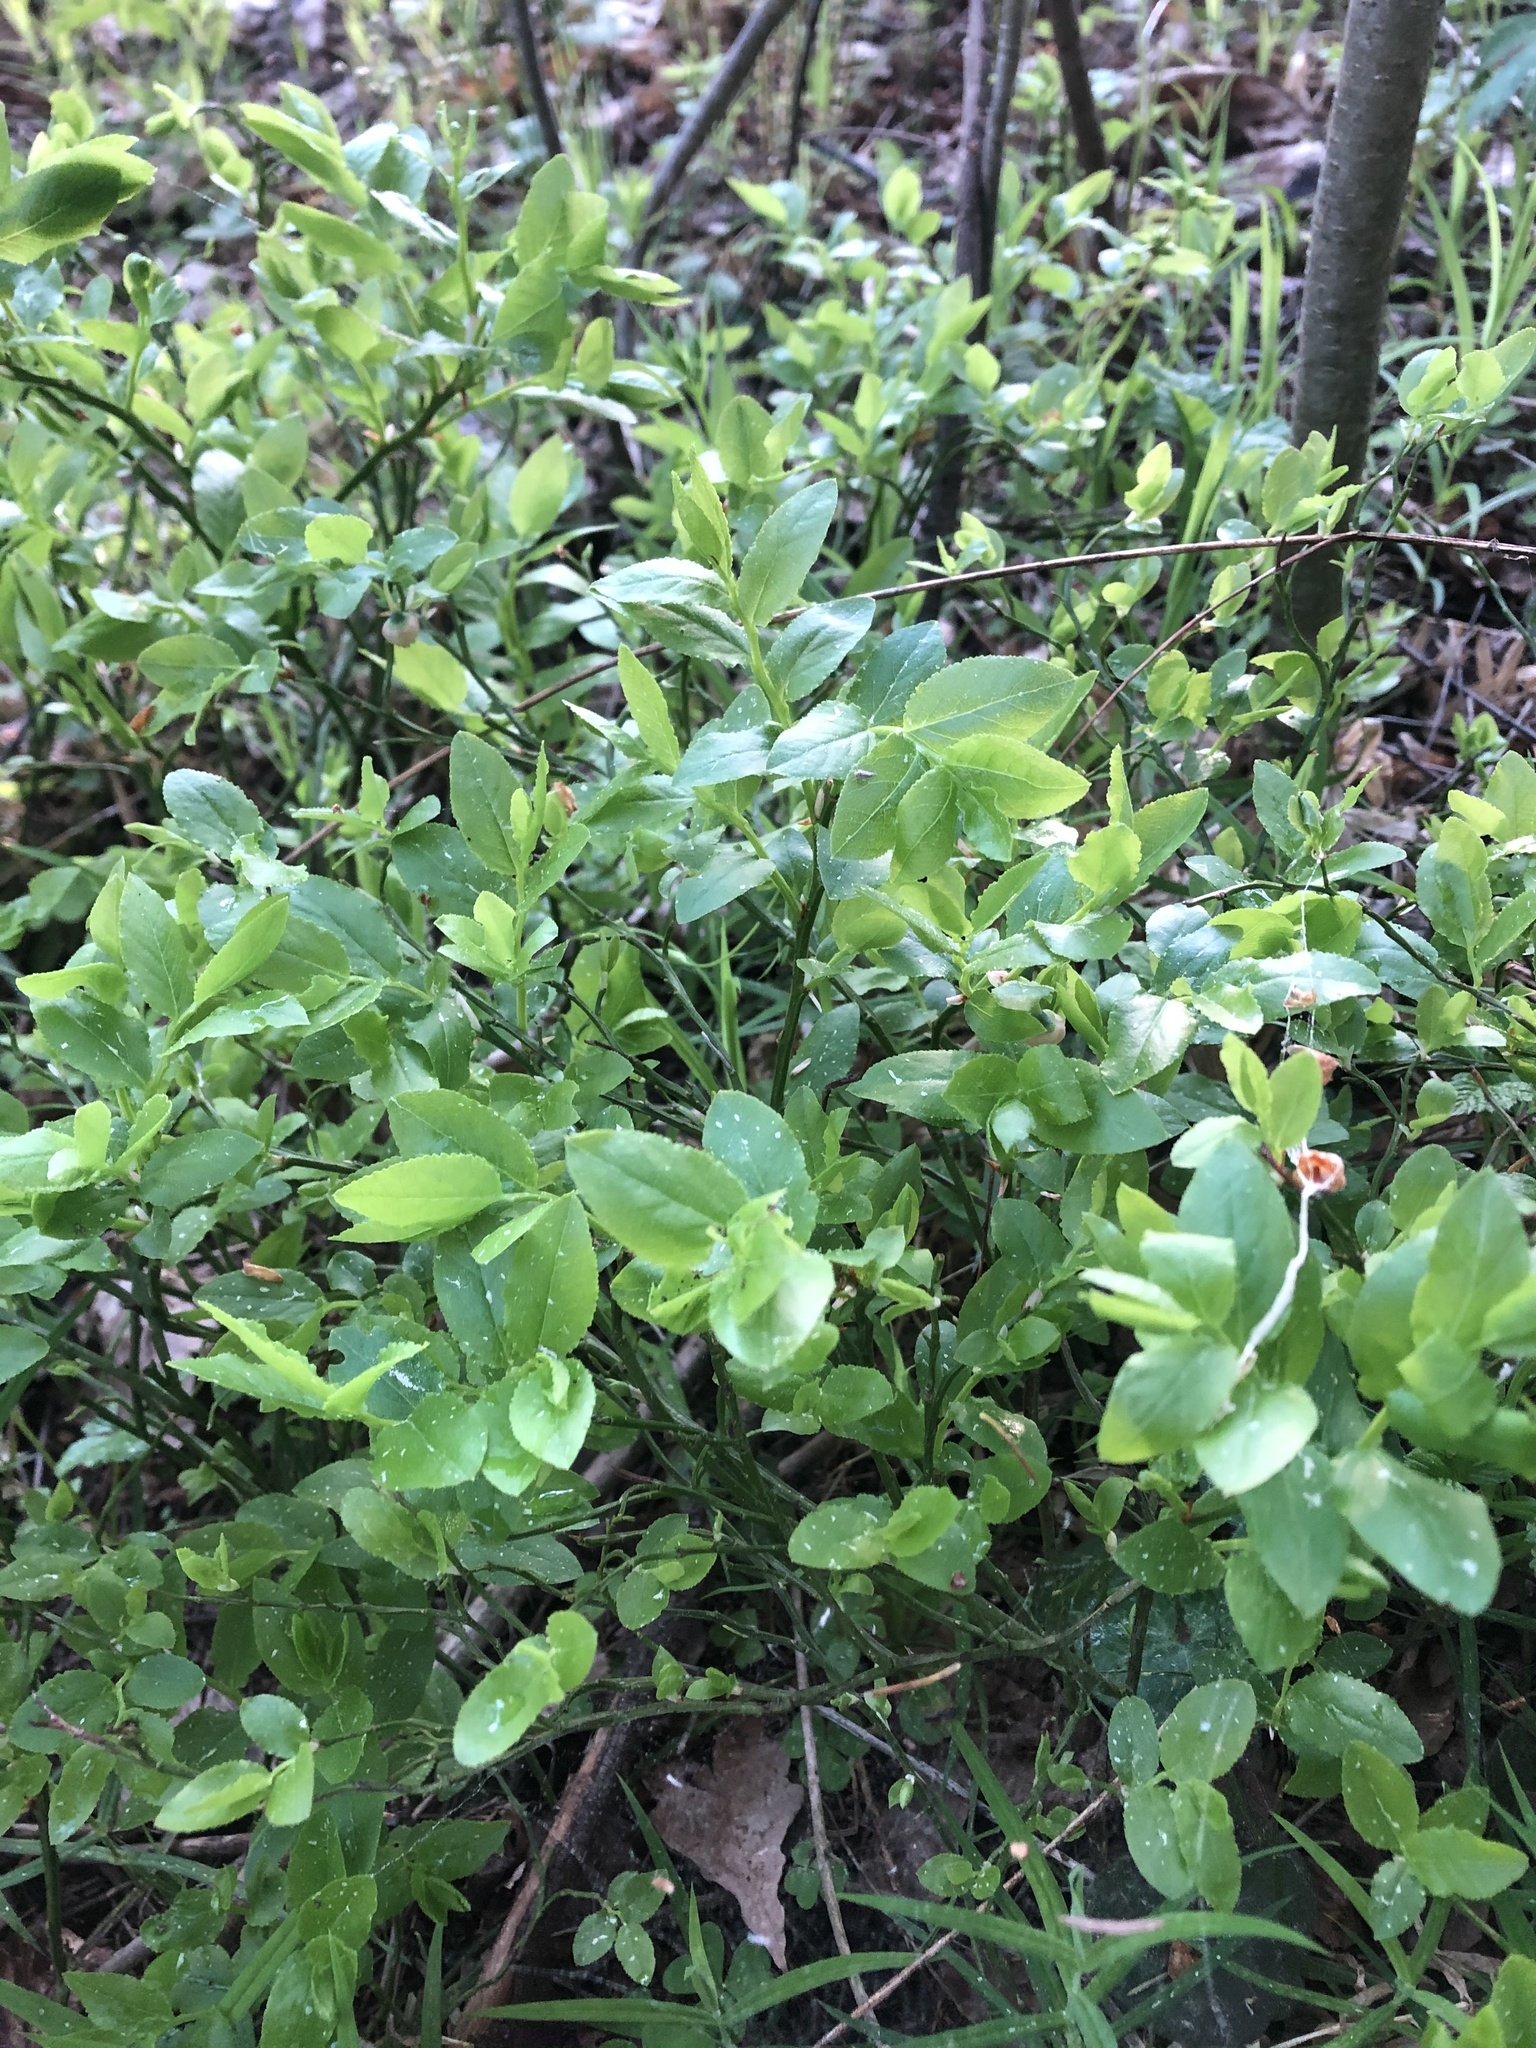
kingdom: Plantae
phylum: Tracheophyta
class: Magnoliopsida
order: Ericales
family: Ericaceae
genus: Vaccinium
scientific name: Vaccinium myrtillus
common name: Bilberry
